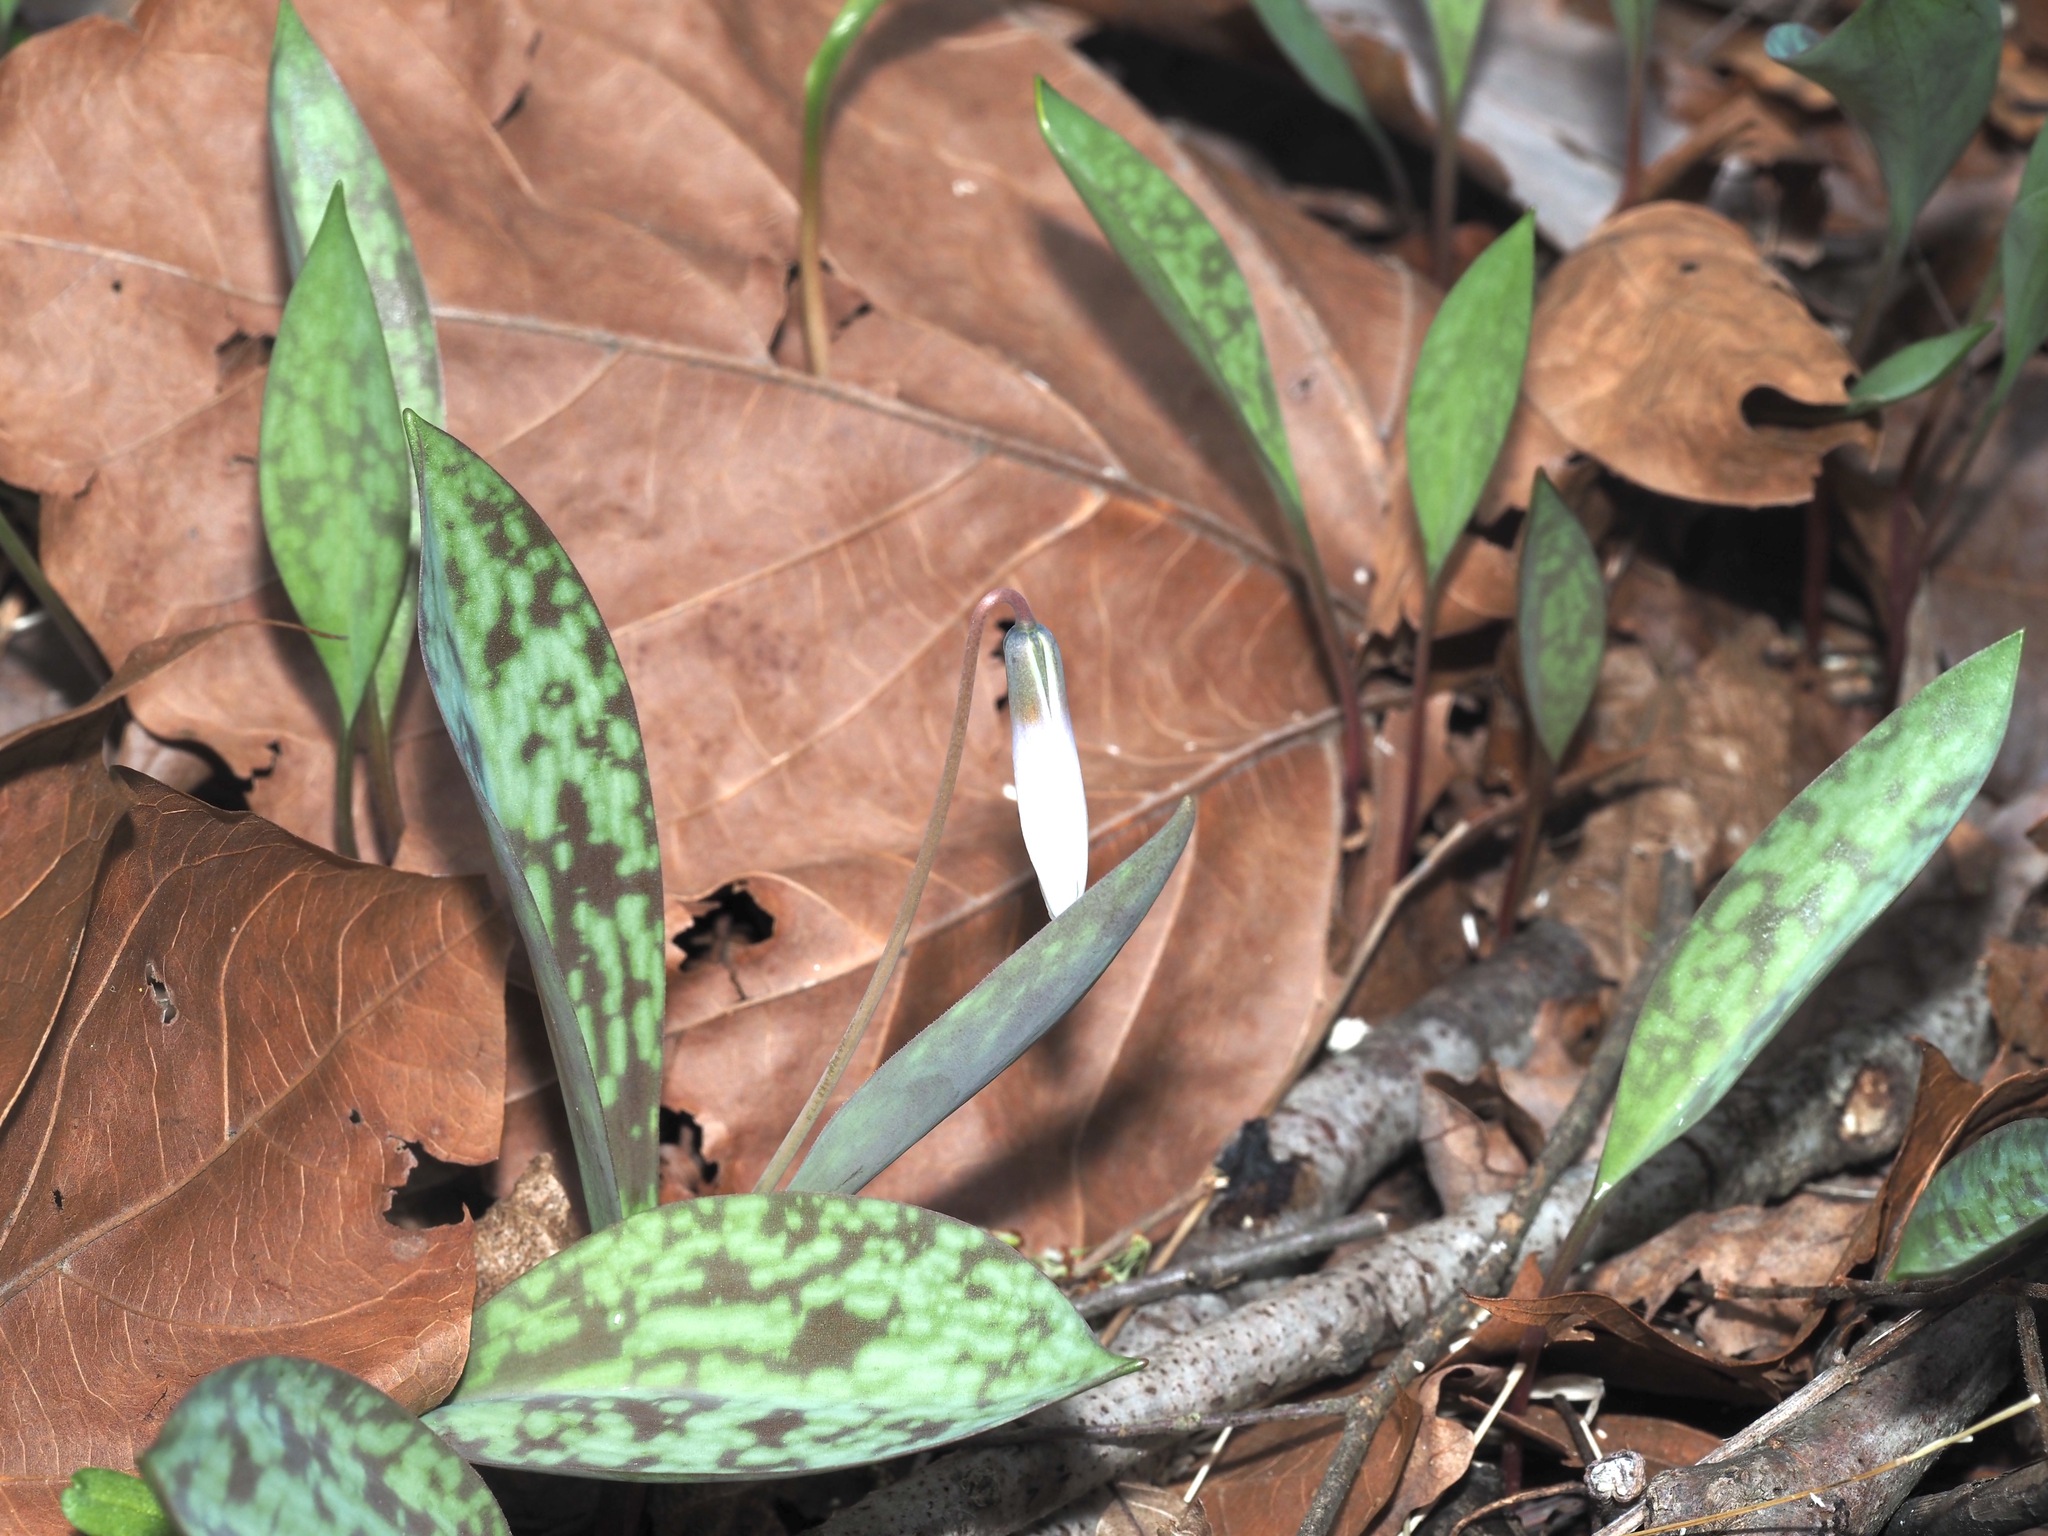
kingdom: Plantae
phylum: Tracheophyta
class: Liliopsida
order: Liliales
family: Liliaceae
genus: Erythronium
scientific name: Erythronium albidum
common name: White trout-lily
